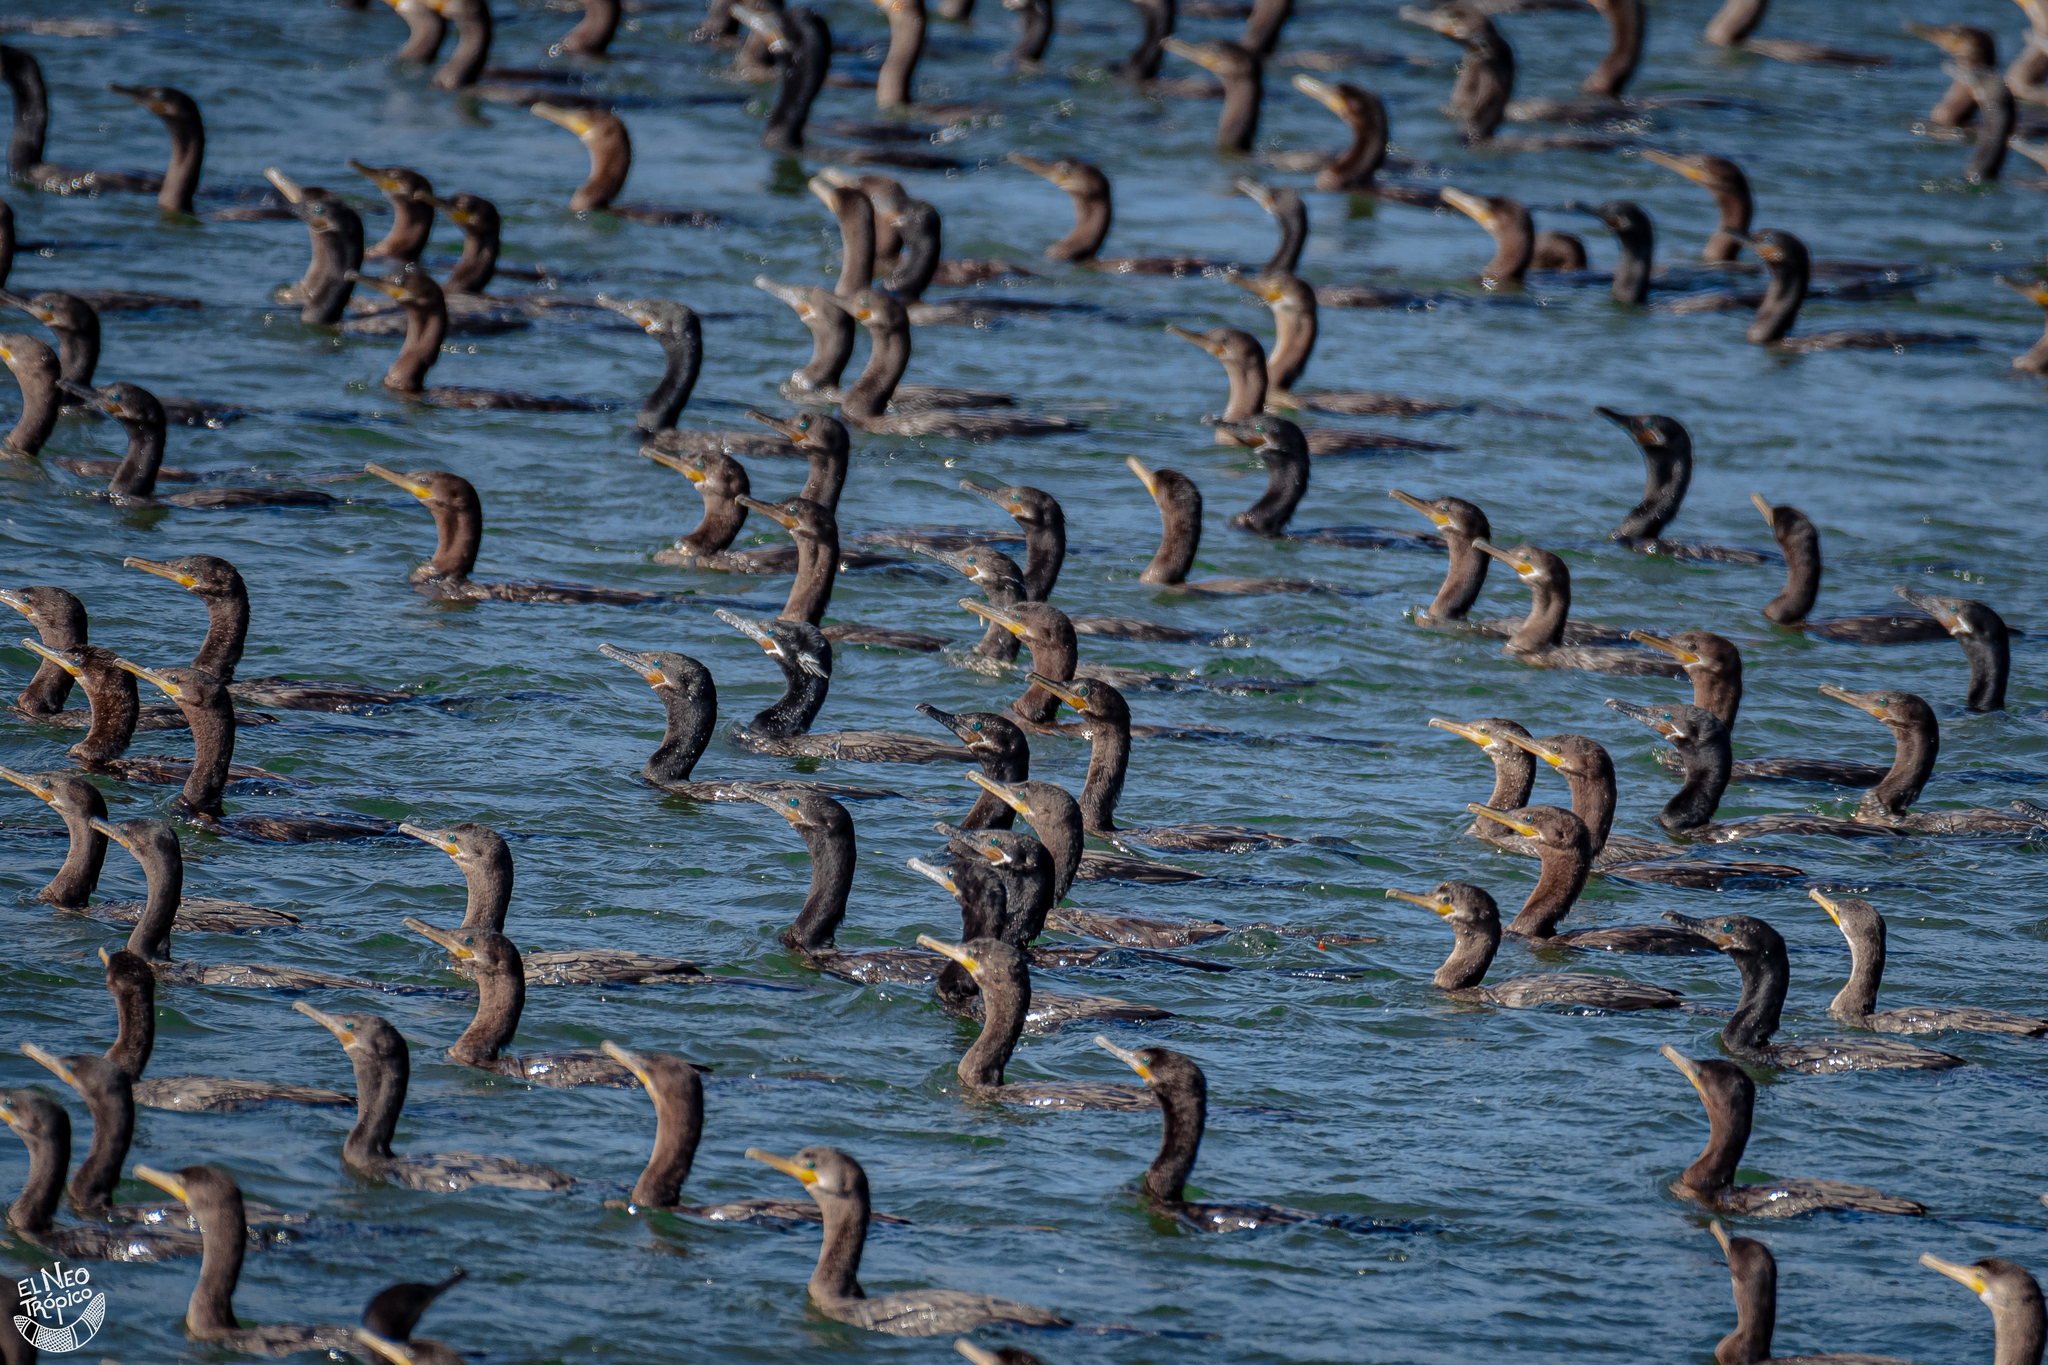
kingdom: Animalia
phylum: Chordata
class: Aves
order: Suliformes
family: Phalacrocoracidae
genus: Phalacrocorax
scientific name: Phalacrocorax brasilianus
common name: Neotropic cormorant
